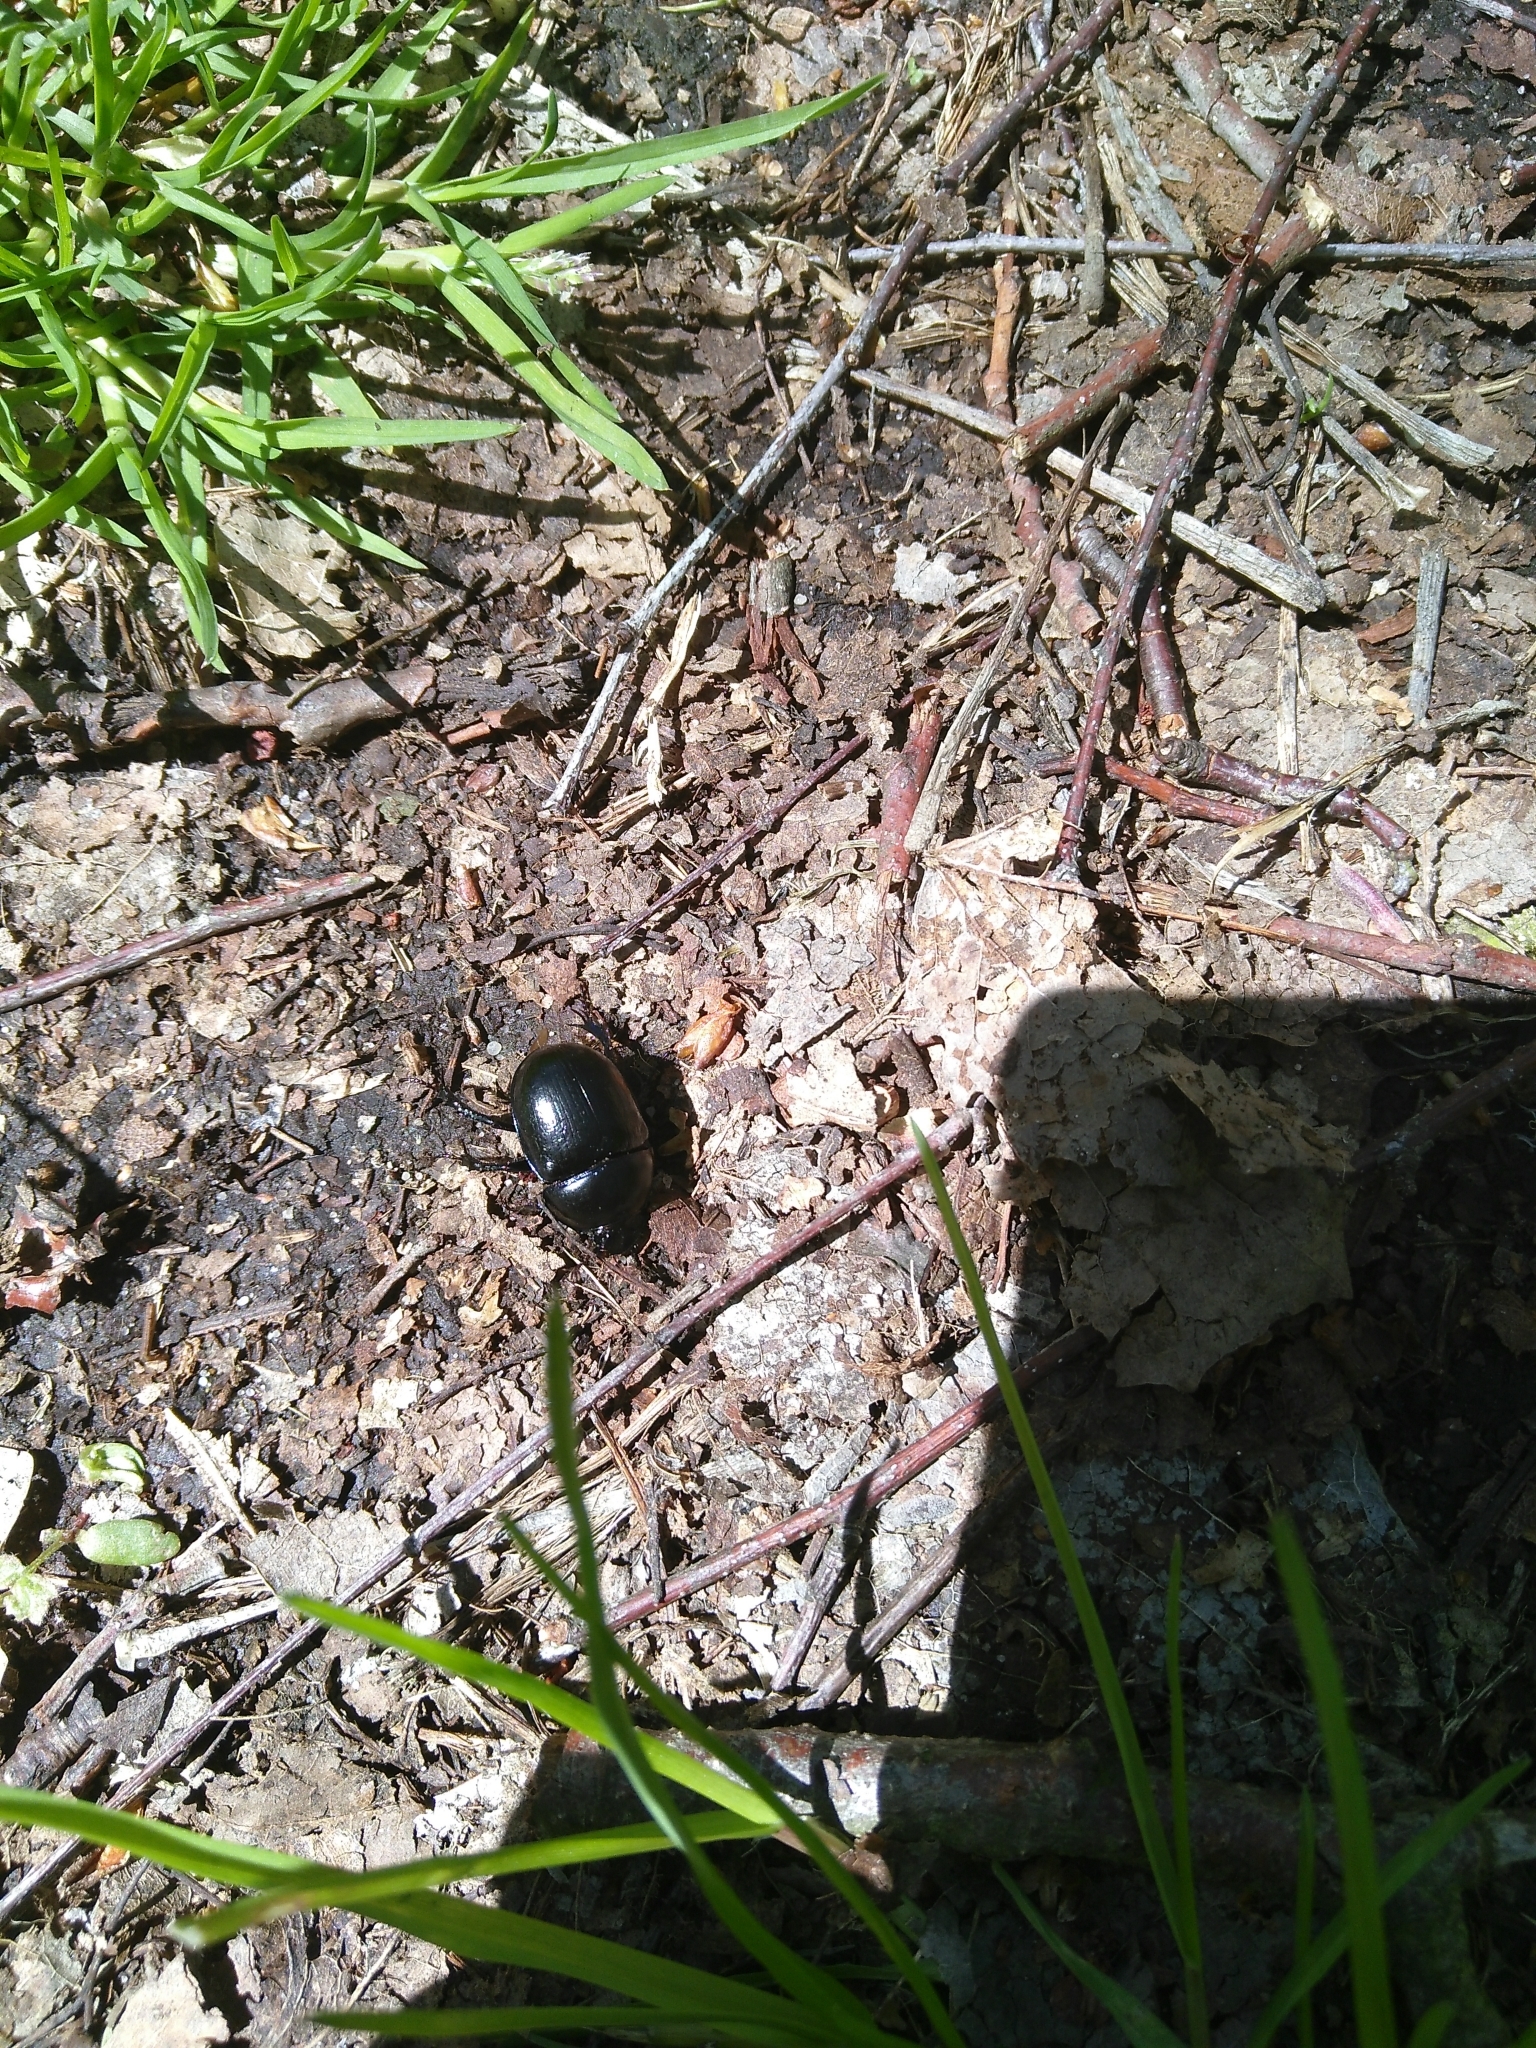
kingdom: Animalia
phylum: Arthropoda
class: Insecta
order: Coleoptera
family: Geotrupidae
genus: Anoplotrupes
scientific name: Anoplotrupes stercorosus
